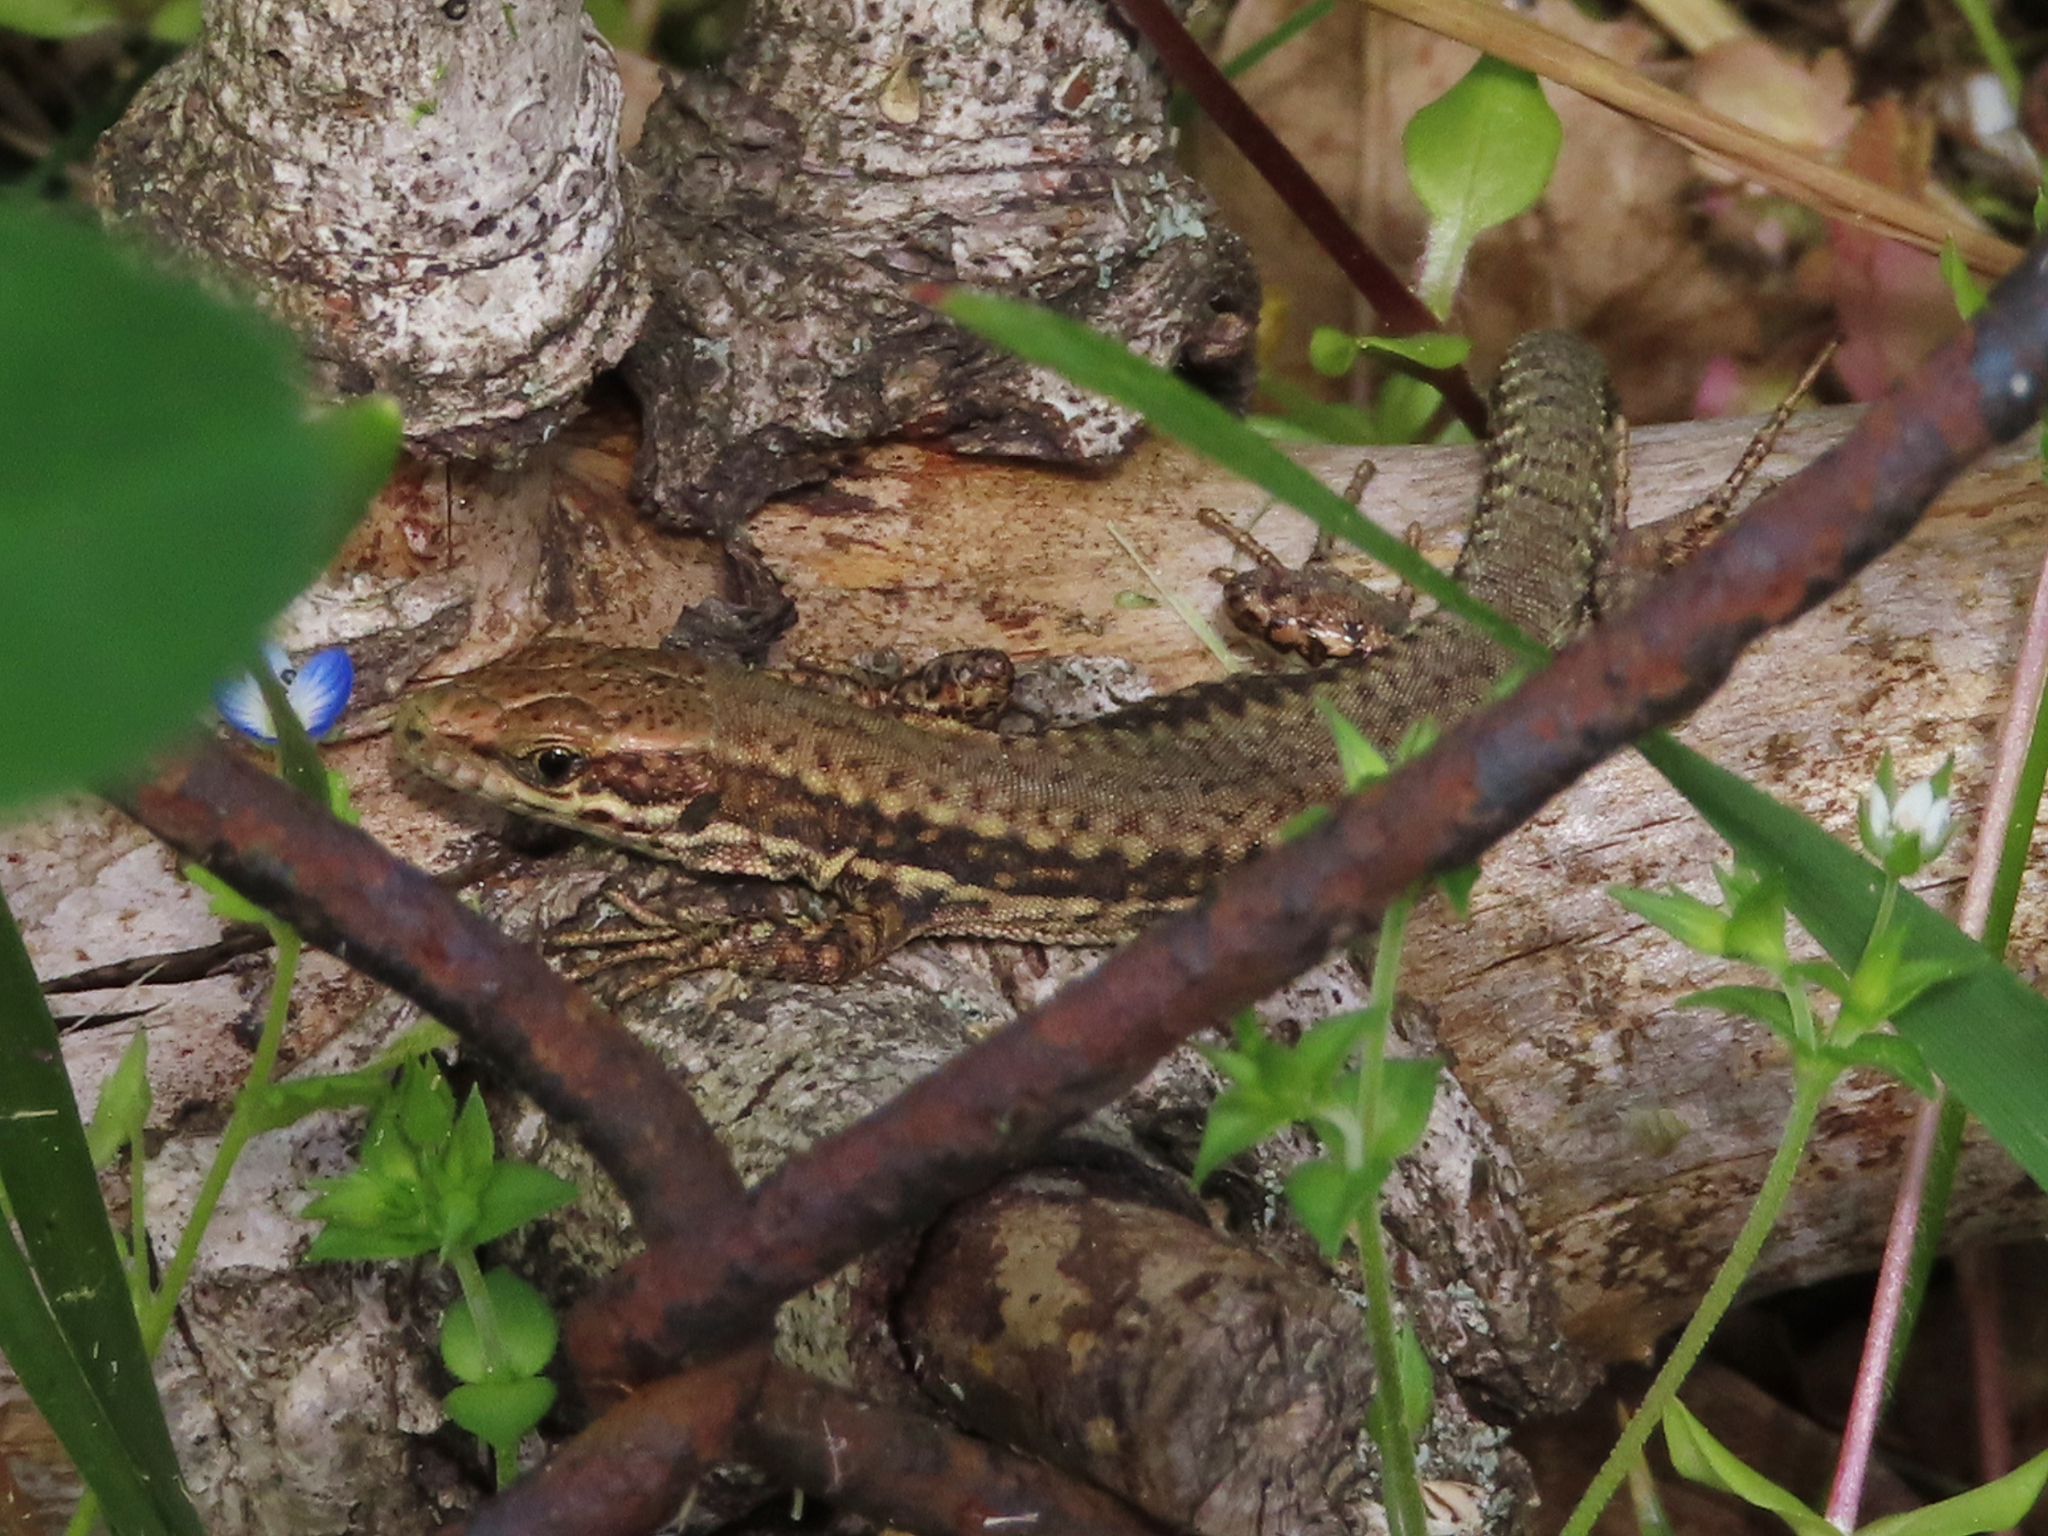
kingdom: Animalia
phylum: Chordata
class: Squamata
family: Lacertidae
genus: Podarcis
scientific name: Podarcis muralis
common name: Common wall lizard
